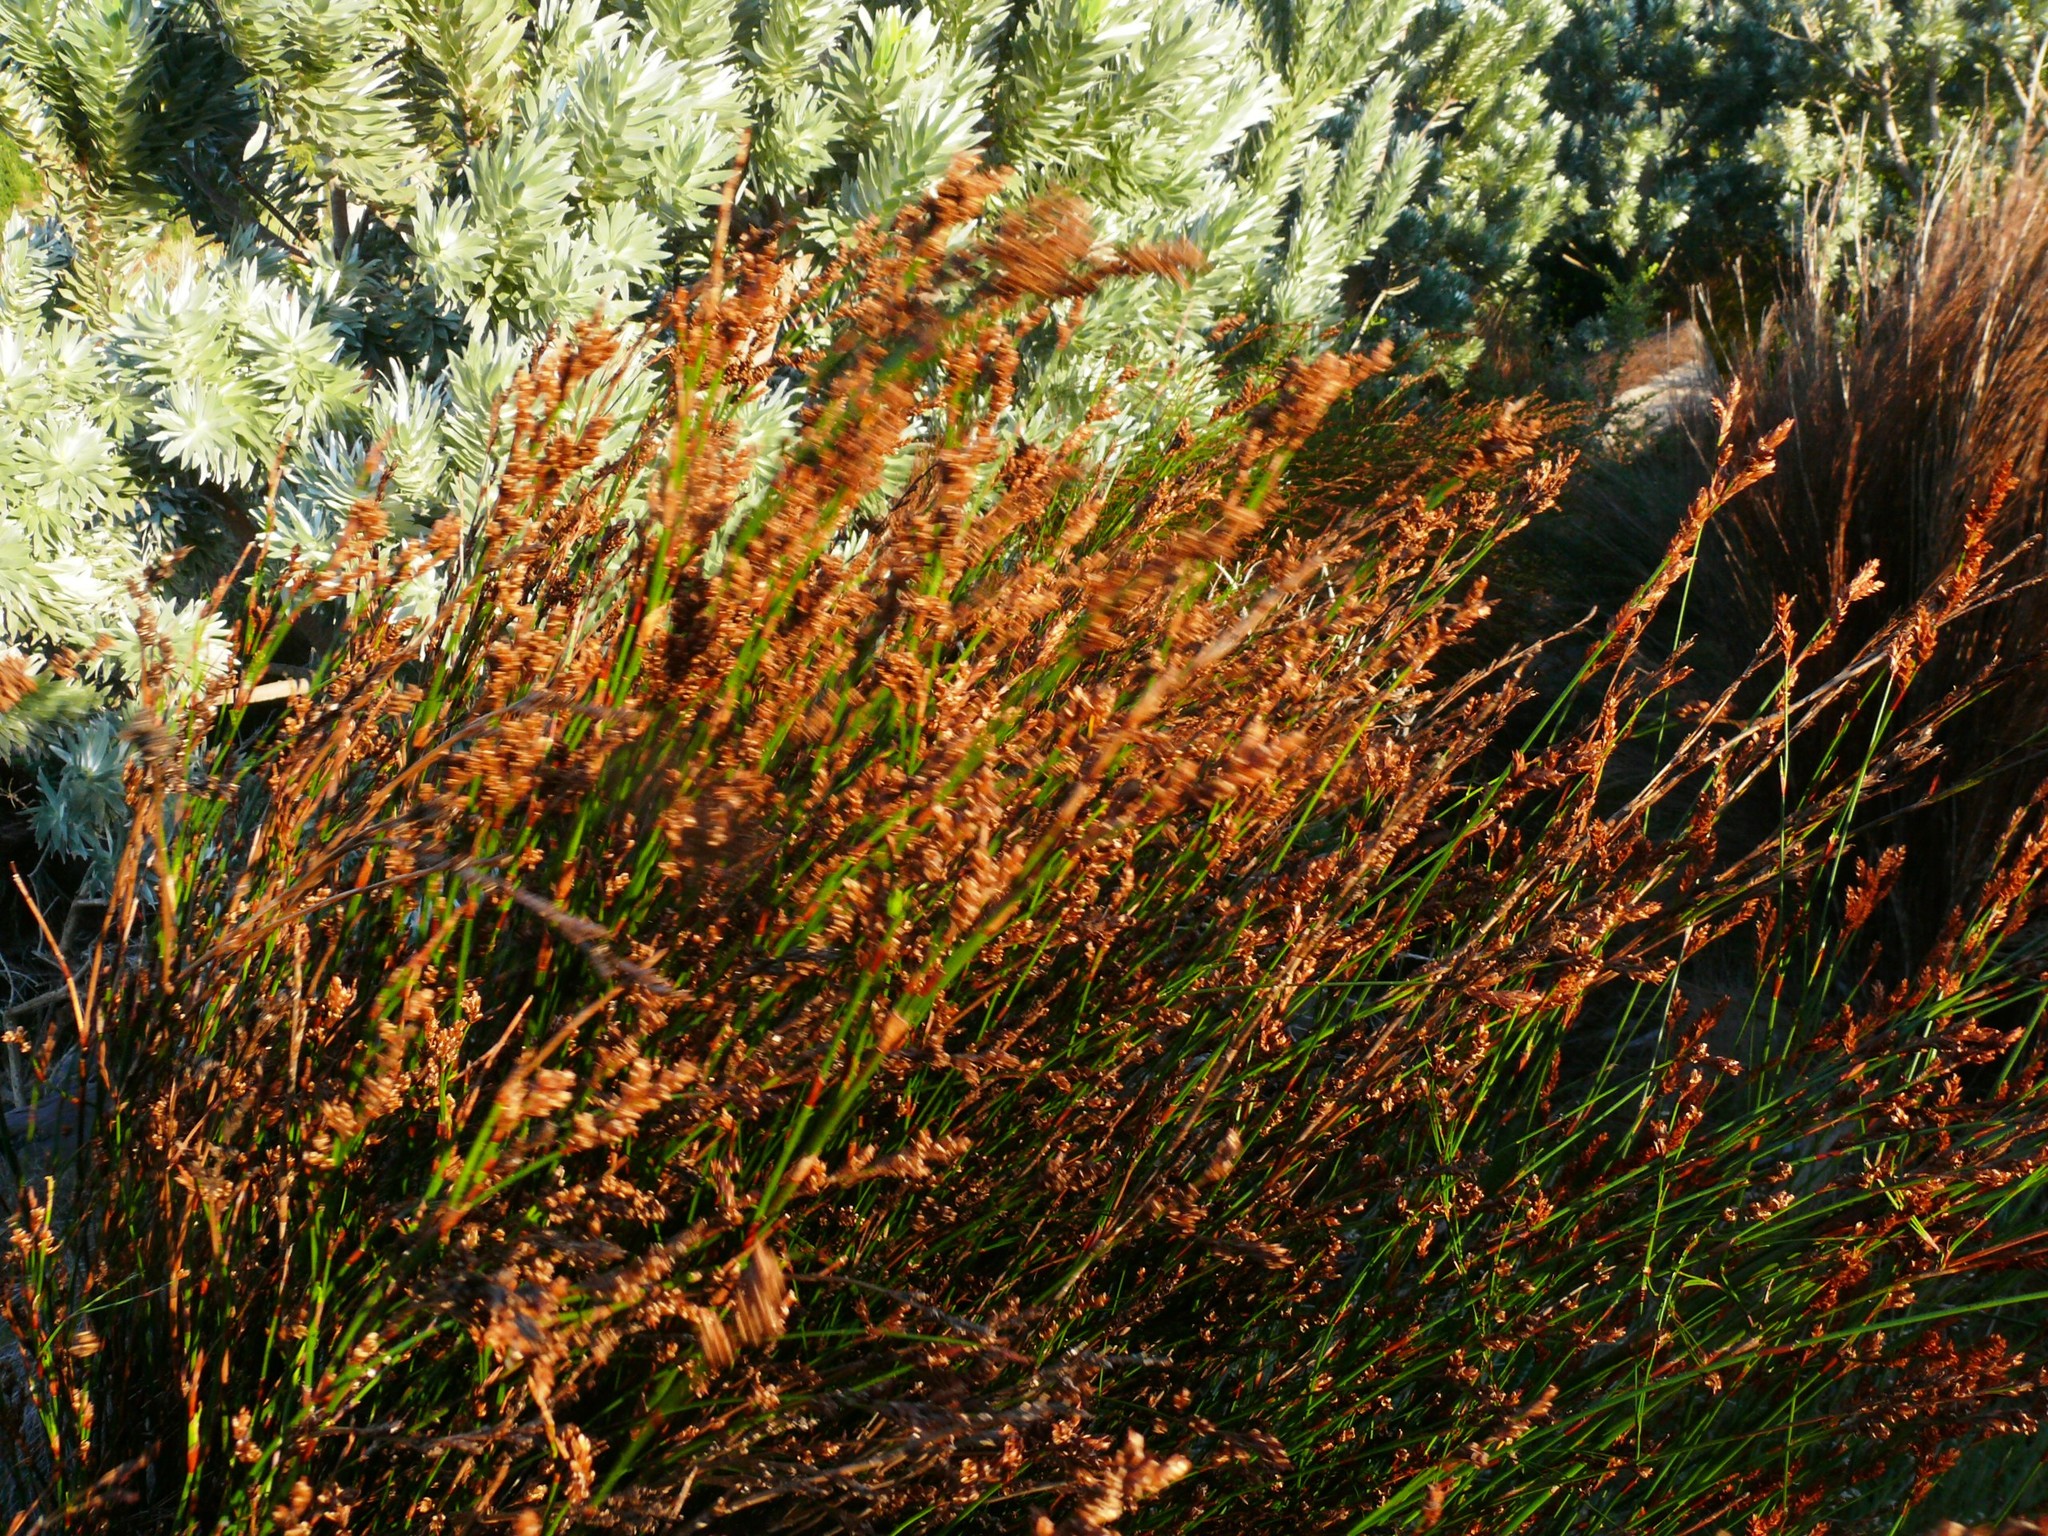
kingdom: Plantae
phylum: Tracheophyta
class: Liliopsida
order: Poales
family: Restionaceae
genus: Restio
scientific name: Restio multiflorus
